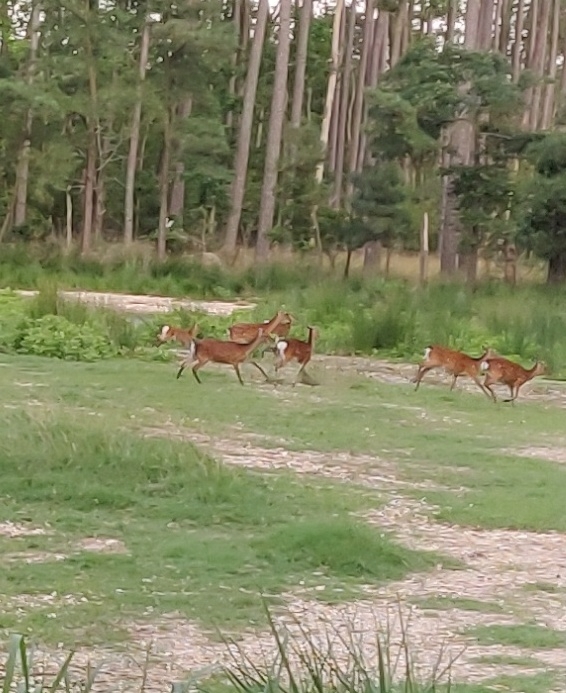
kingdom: Animalia
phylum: Chordata
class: Mammalia
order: Artiodactyla
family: Cervidae
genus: Cervus
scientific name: Cervus nippon
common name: Sika deer
